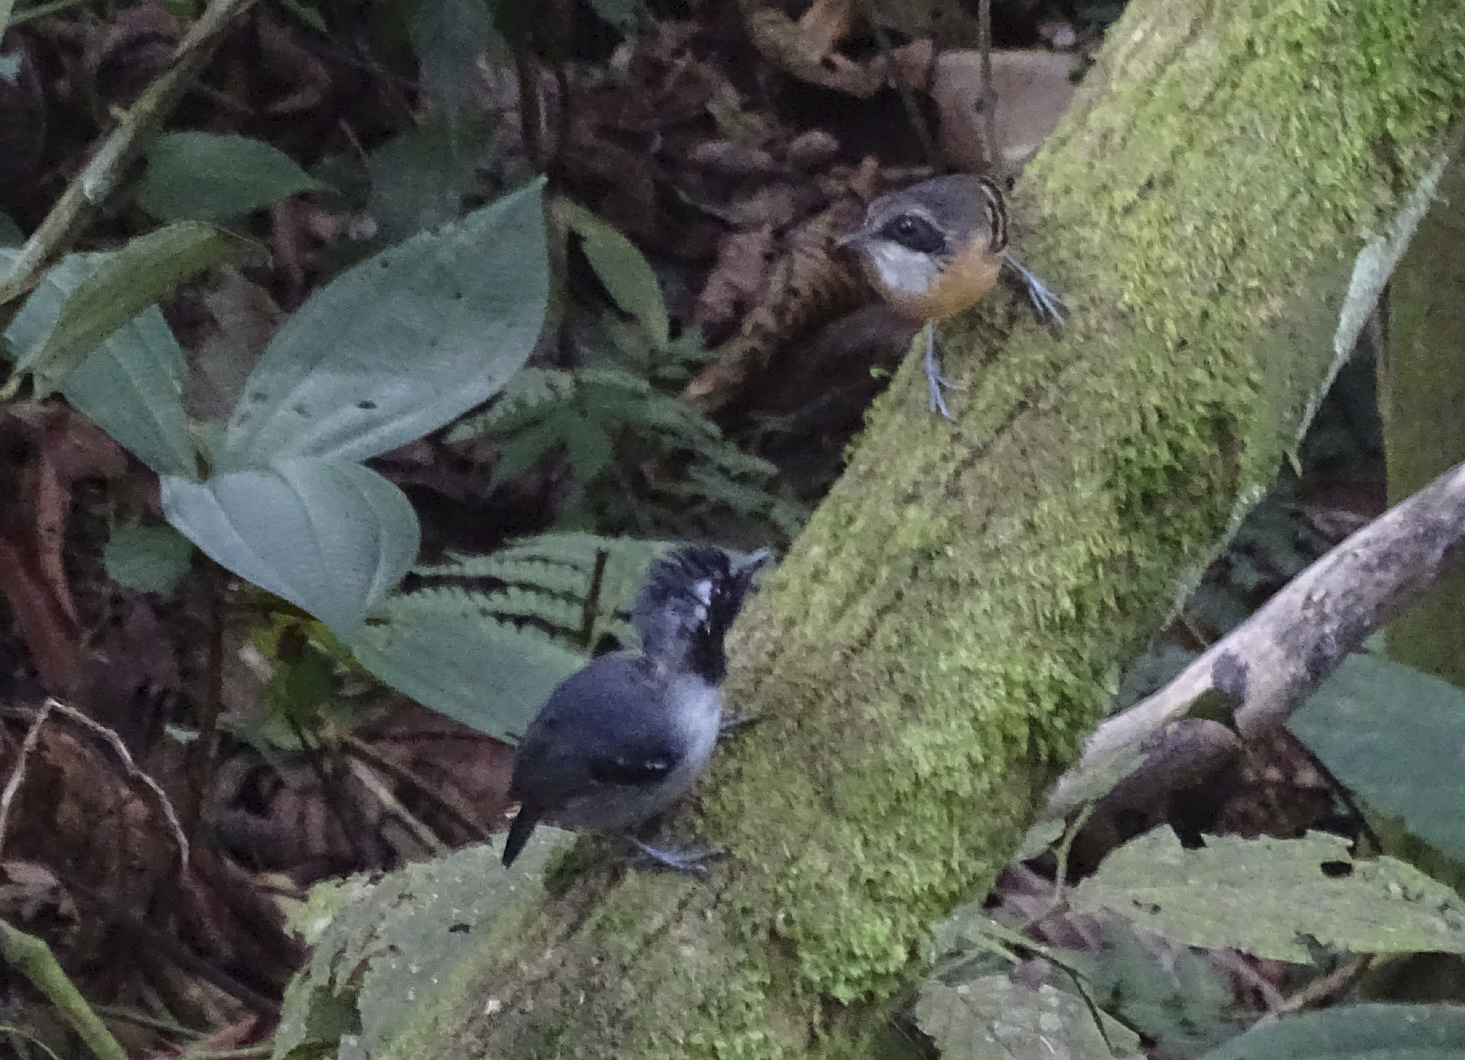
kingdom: Animalia
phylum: Chordata
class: Aves
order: Passeriformes
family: Thamnophilidae
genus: Myrmoborus
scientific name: Myrmoborus myotherinus
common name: Black-faced antbird
